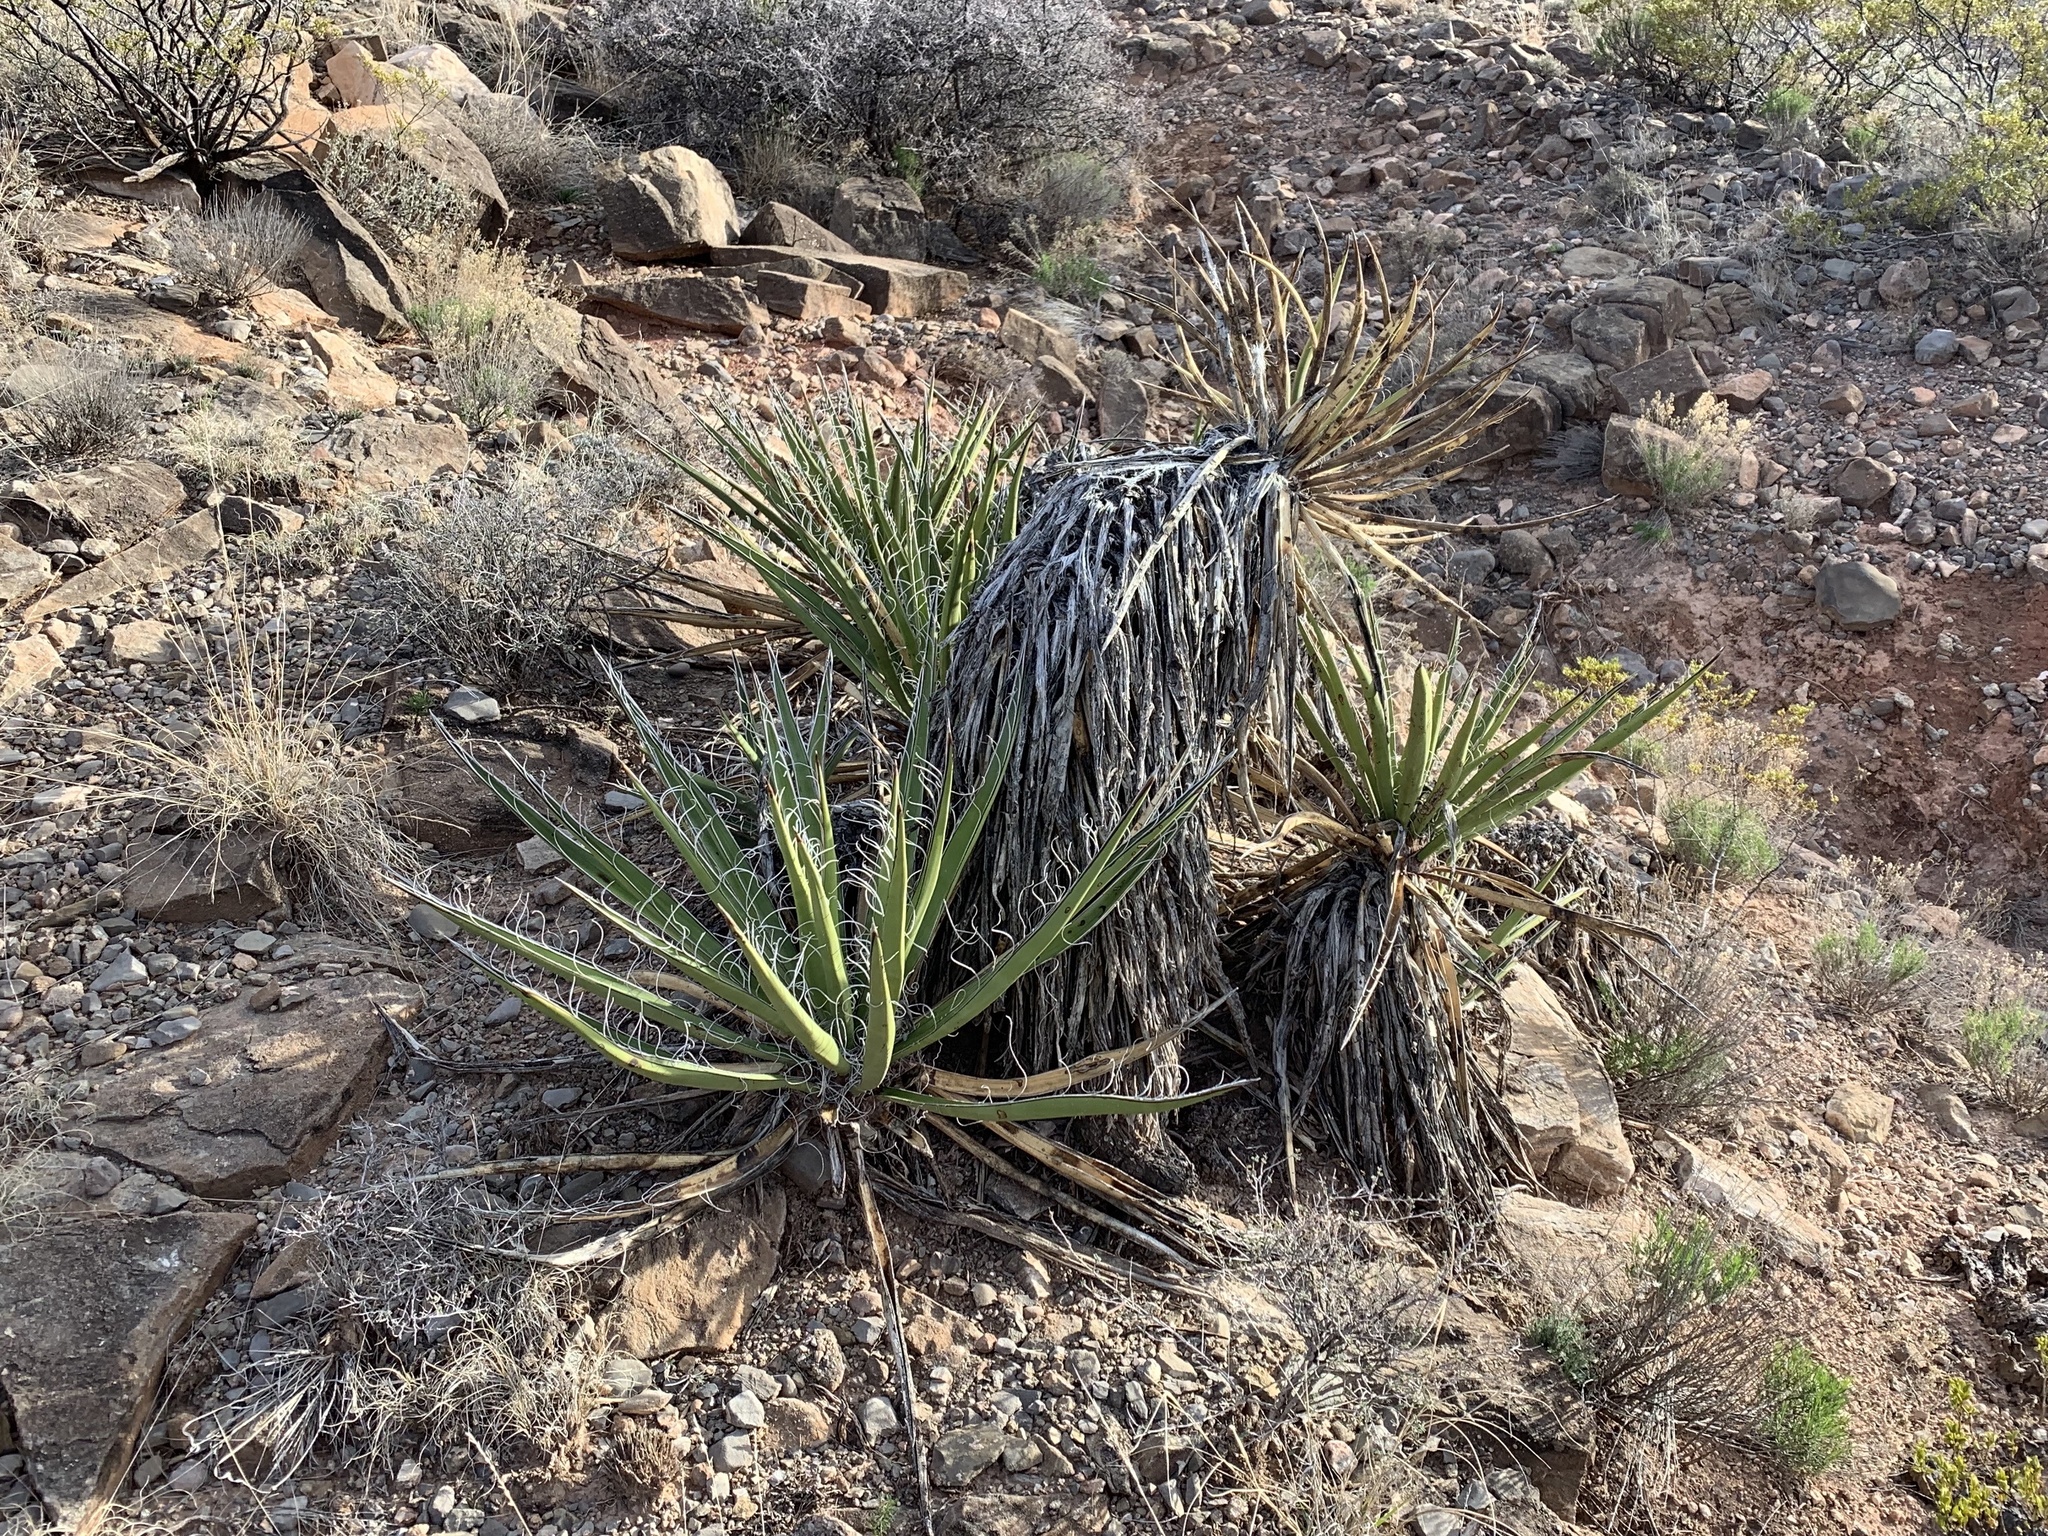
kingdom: Plantae
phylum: Tracheophyta
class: Liliopsida
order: Asparagales
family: Asparagaceae
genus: Yucca
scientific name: Yucca baccata
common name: Banana yucca
